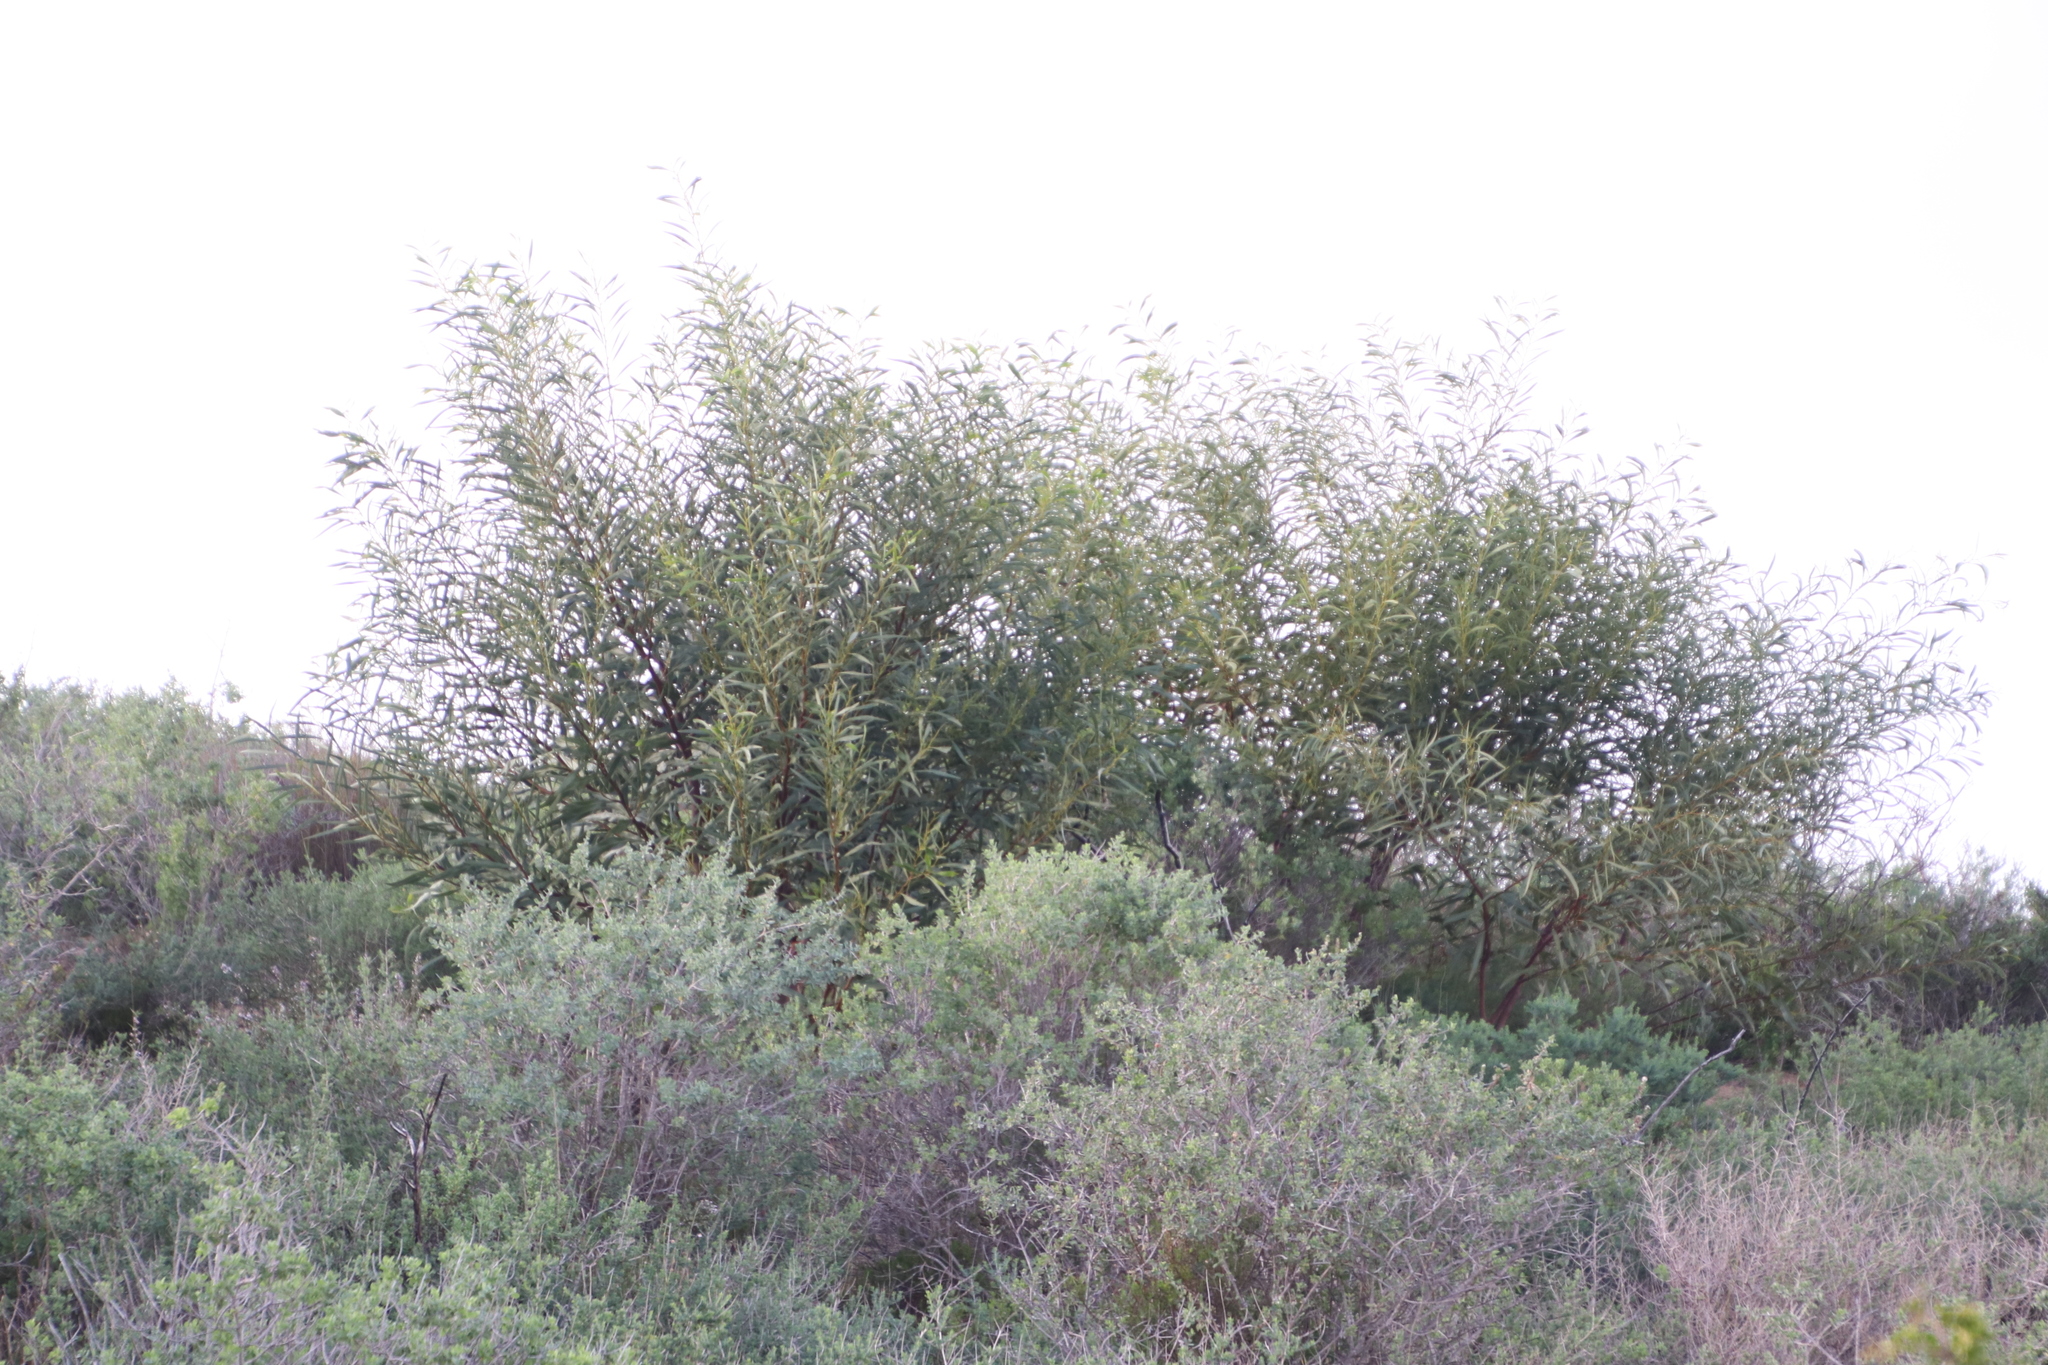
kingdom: Plantae
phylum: Tracheophyta
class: Magnoliopsida
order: Fabales
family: Fabaceae
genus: Acacia
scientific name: Acacia saligna
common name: Orange wattle
